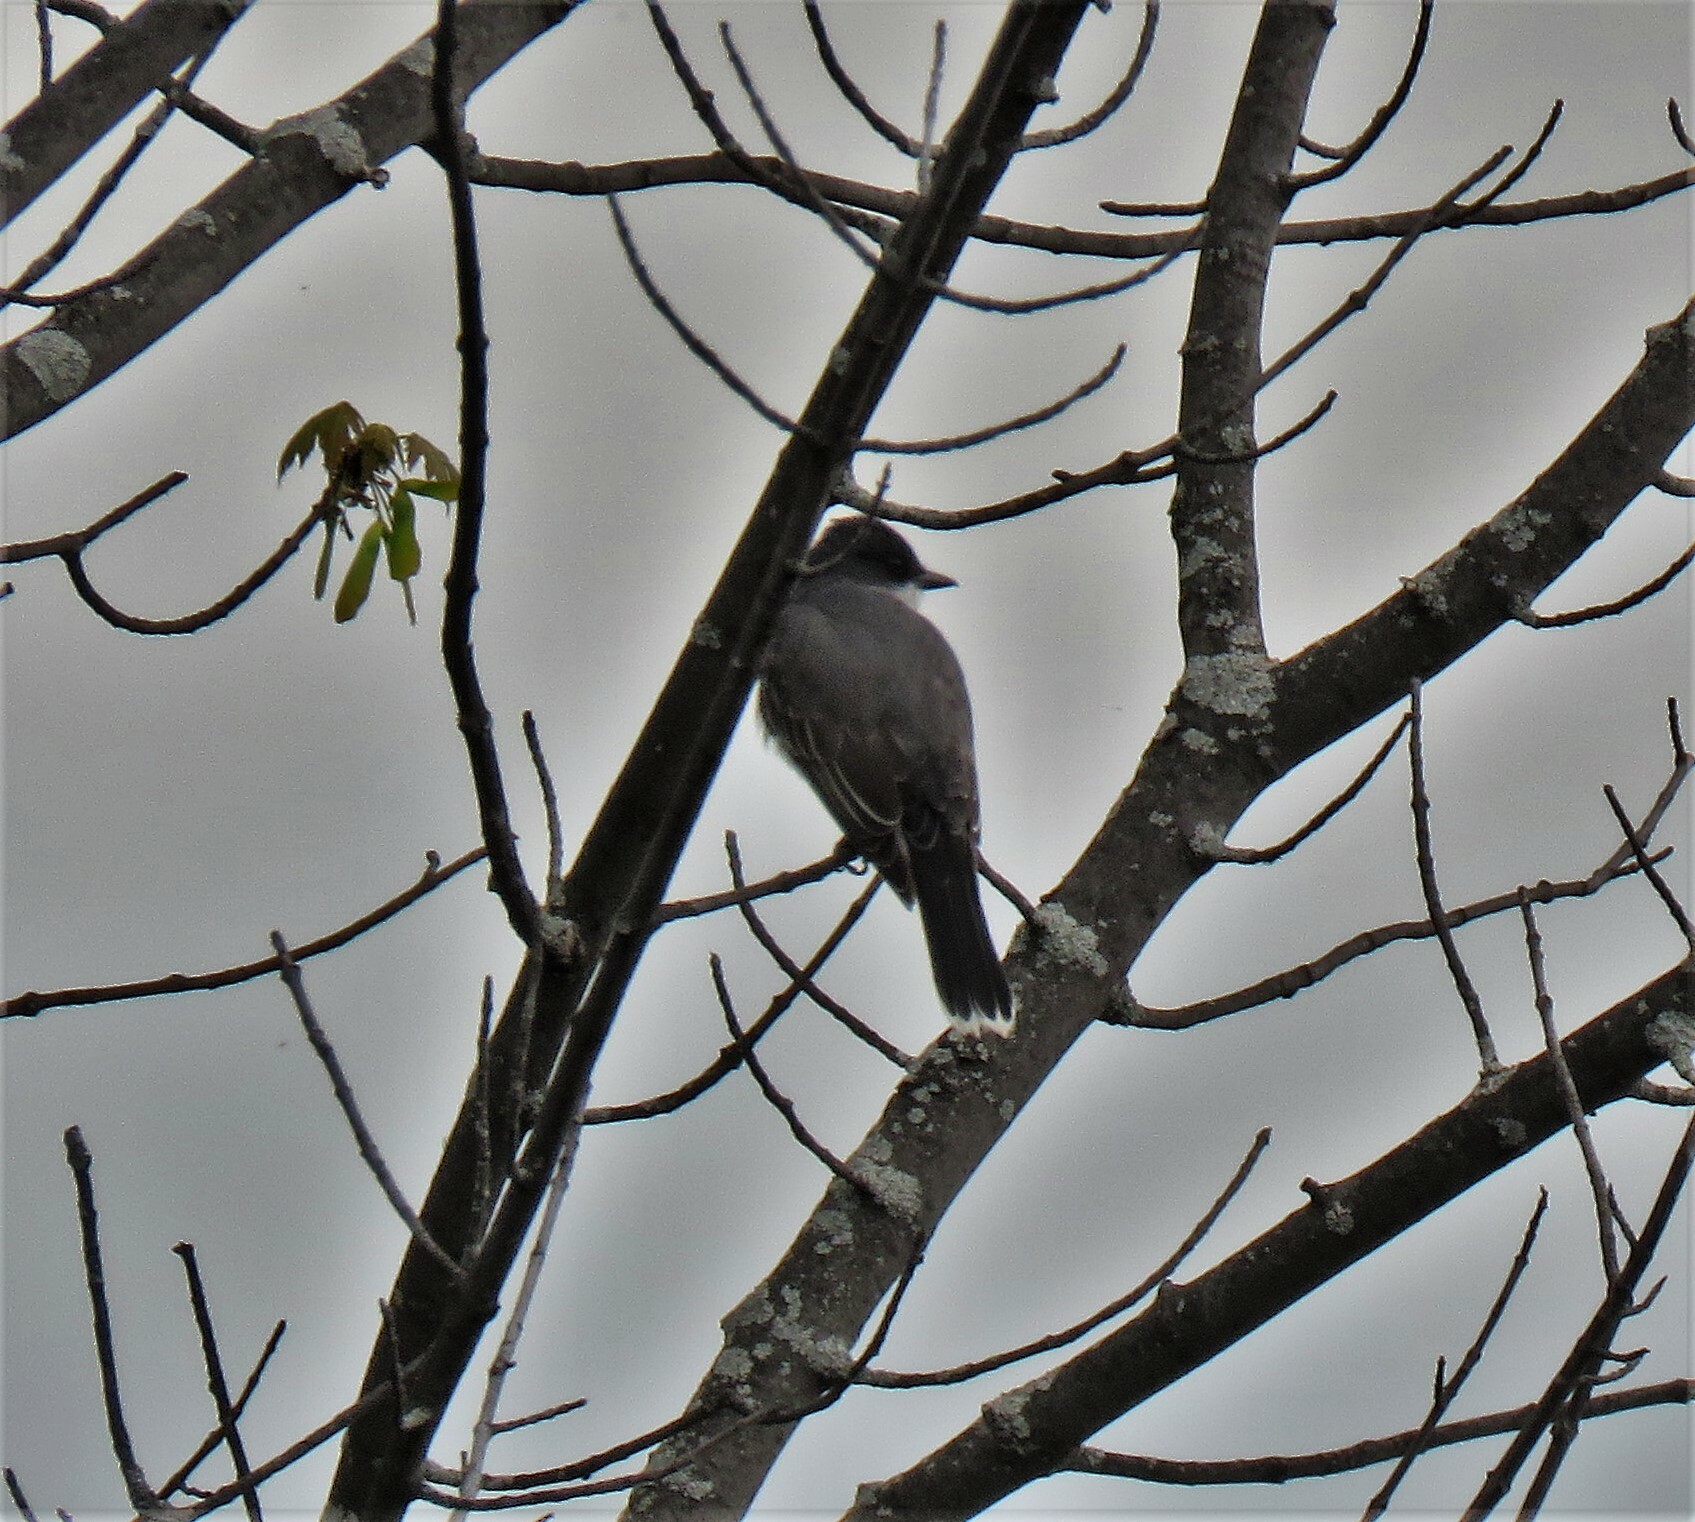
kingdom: Animalia
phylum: Chordata
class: Aves
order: Passeriformes
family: Tyrannidae
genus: Tyrannus
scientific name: Tyrannus tyrannus
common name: Eastern kingbird
